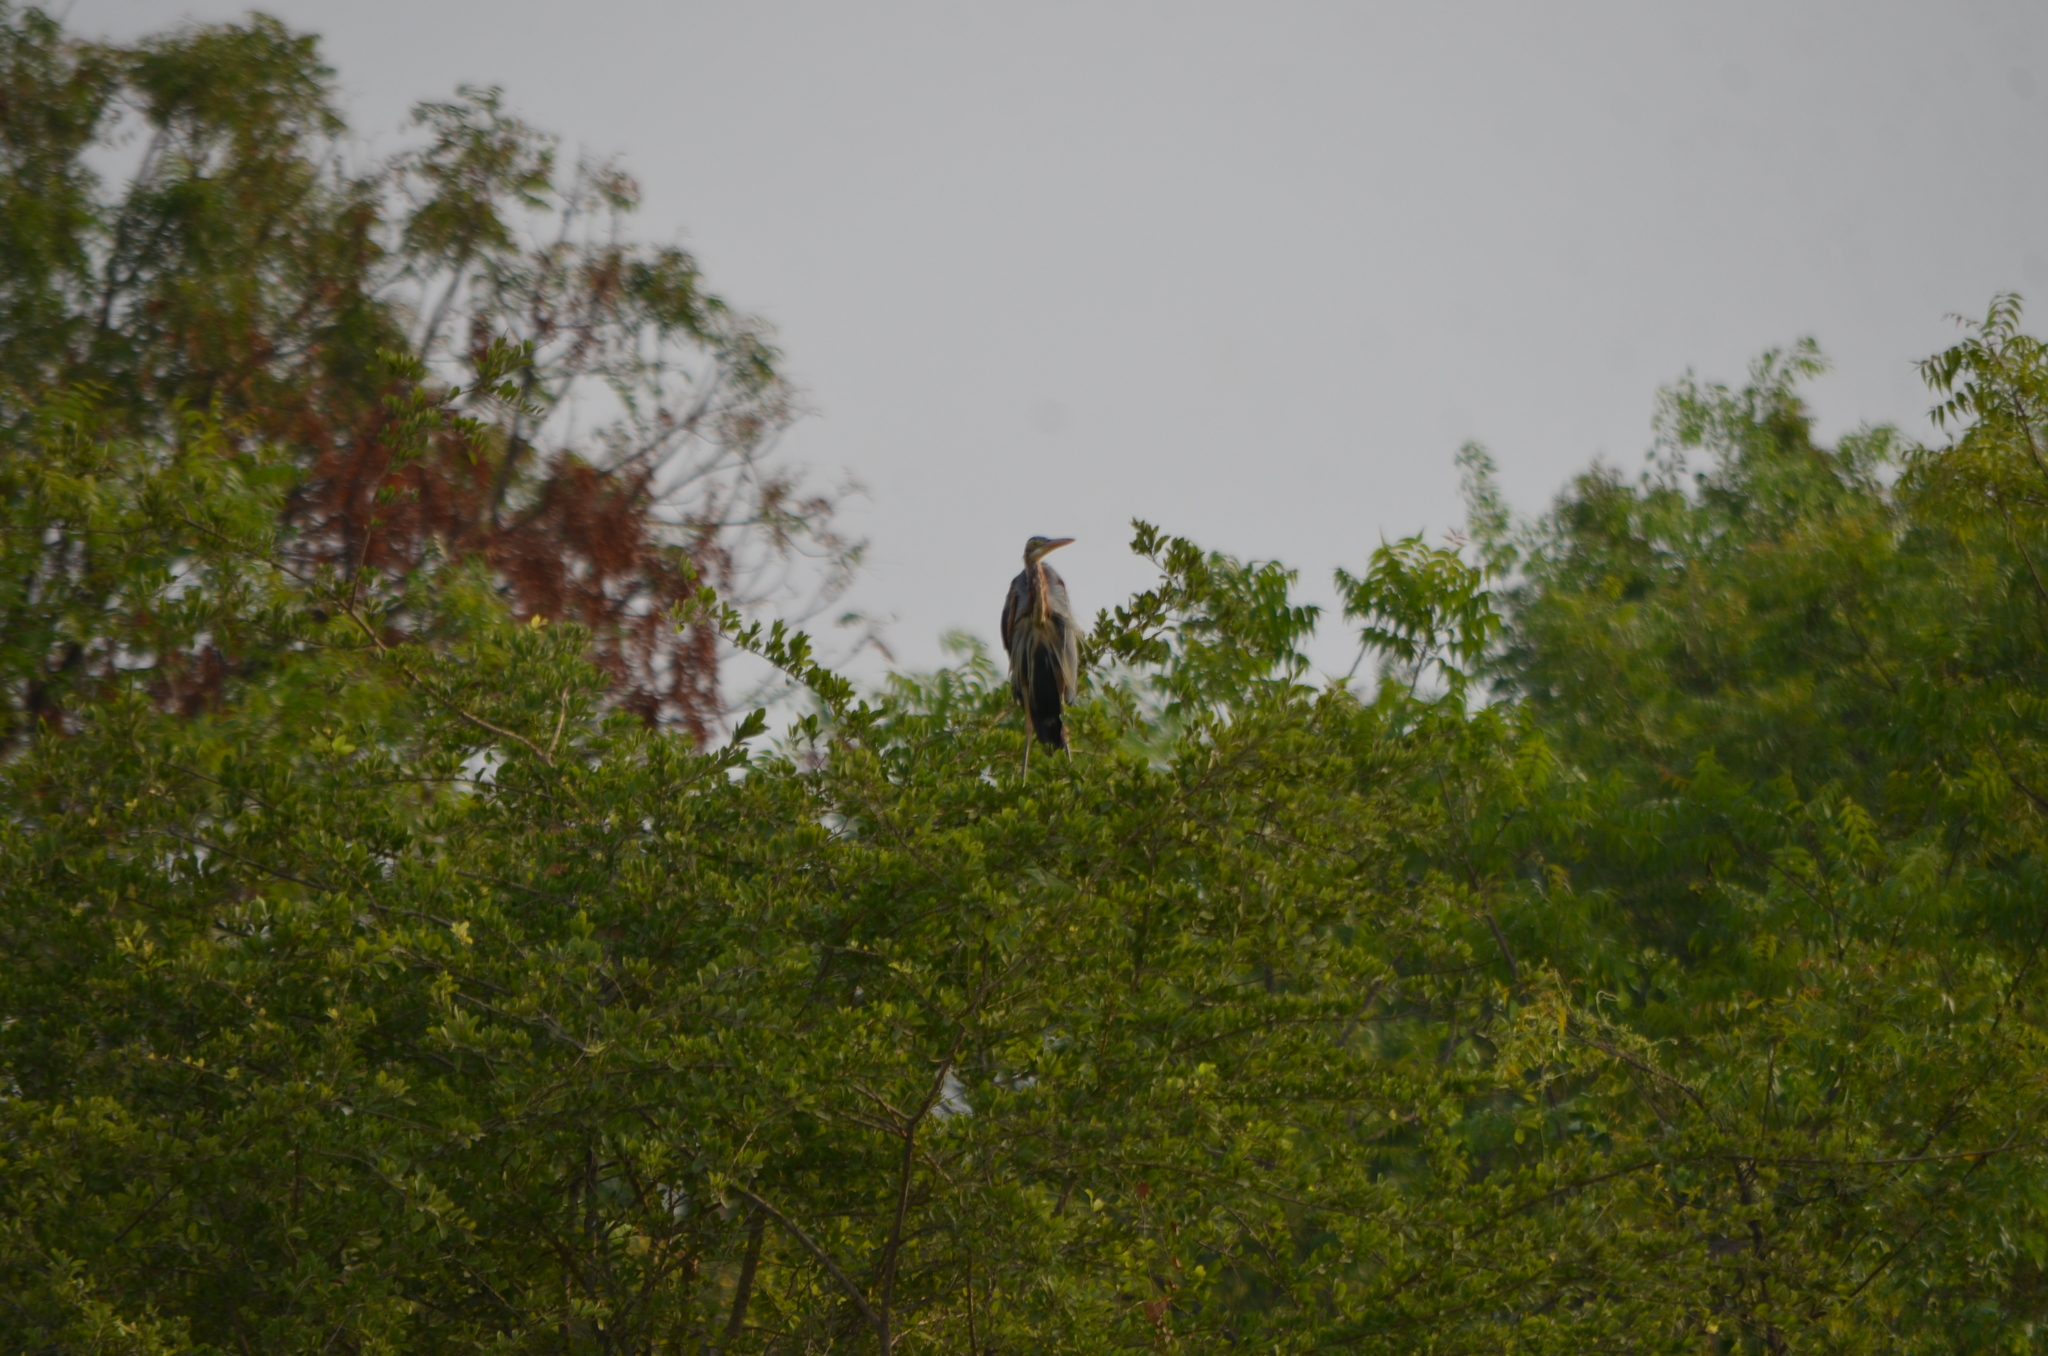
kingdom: Animalia
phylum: Chordata
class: Aves
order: Pelecaniformes
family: Ardeidae
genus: Ardea
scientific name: Ardea purpurea
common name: Purple heron
